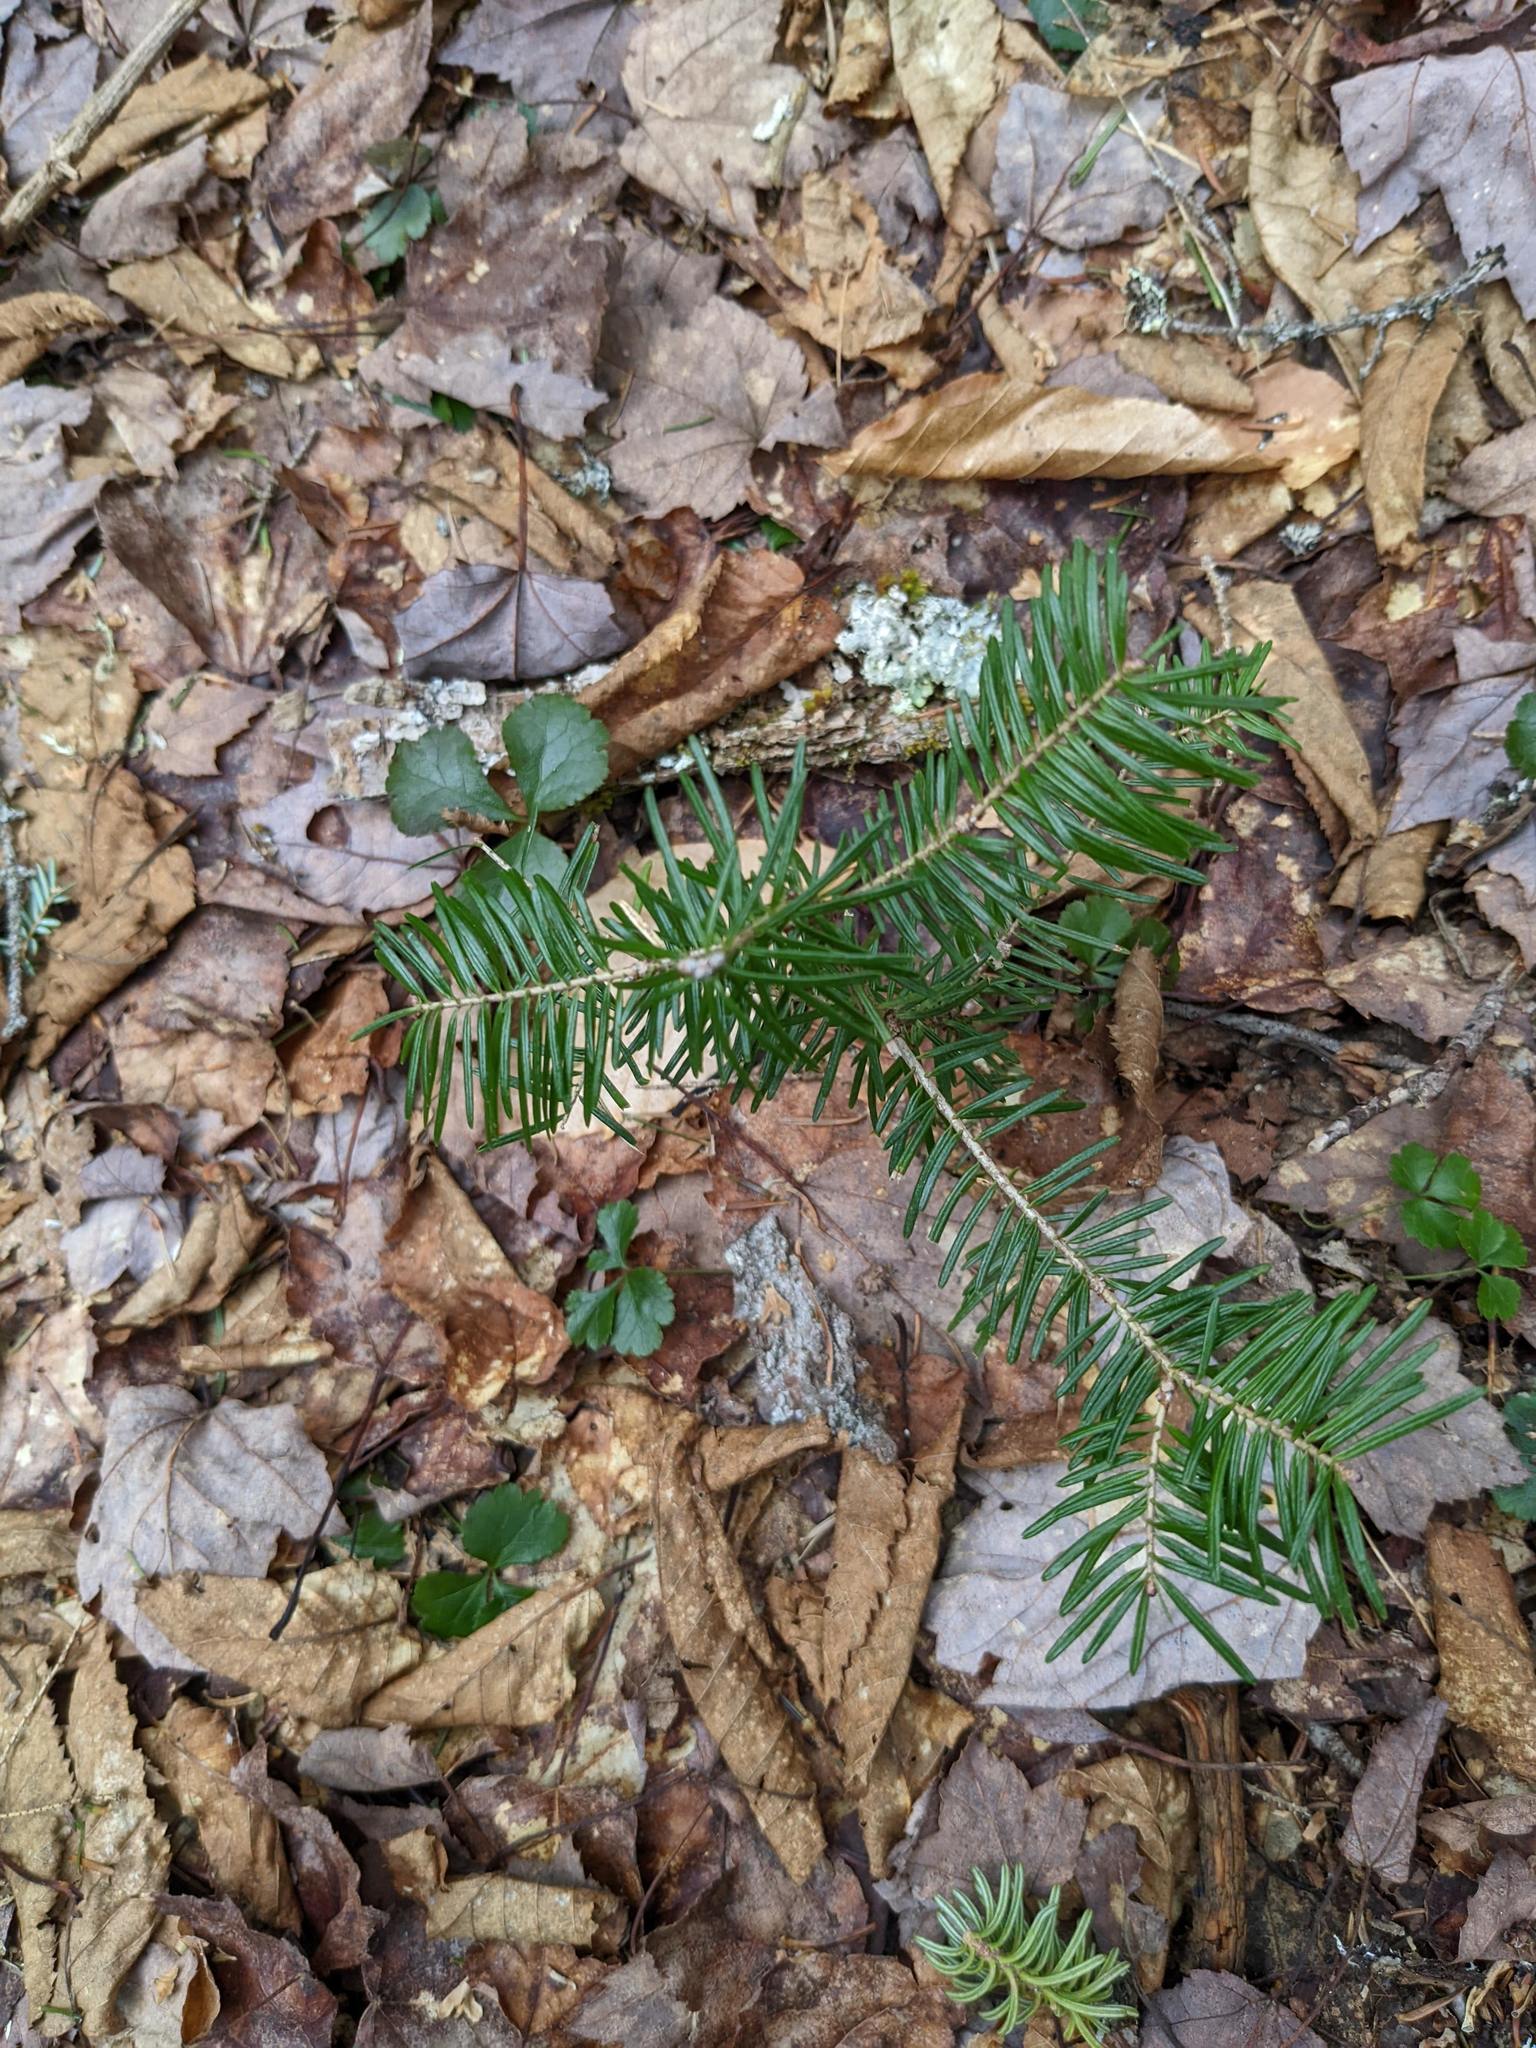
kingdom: Plantae
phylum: Tracheophyta
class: Magnoliopsida
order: Ranunculales
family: Ranunculaceae
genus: Coptis
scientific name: Coptis trifolia
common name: Canker-root
